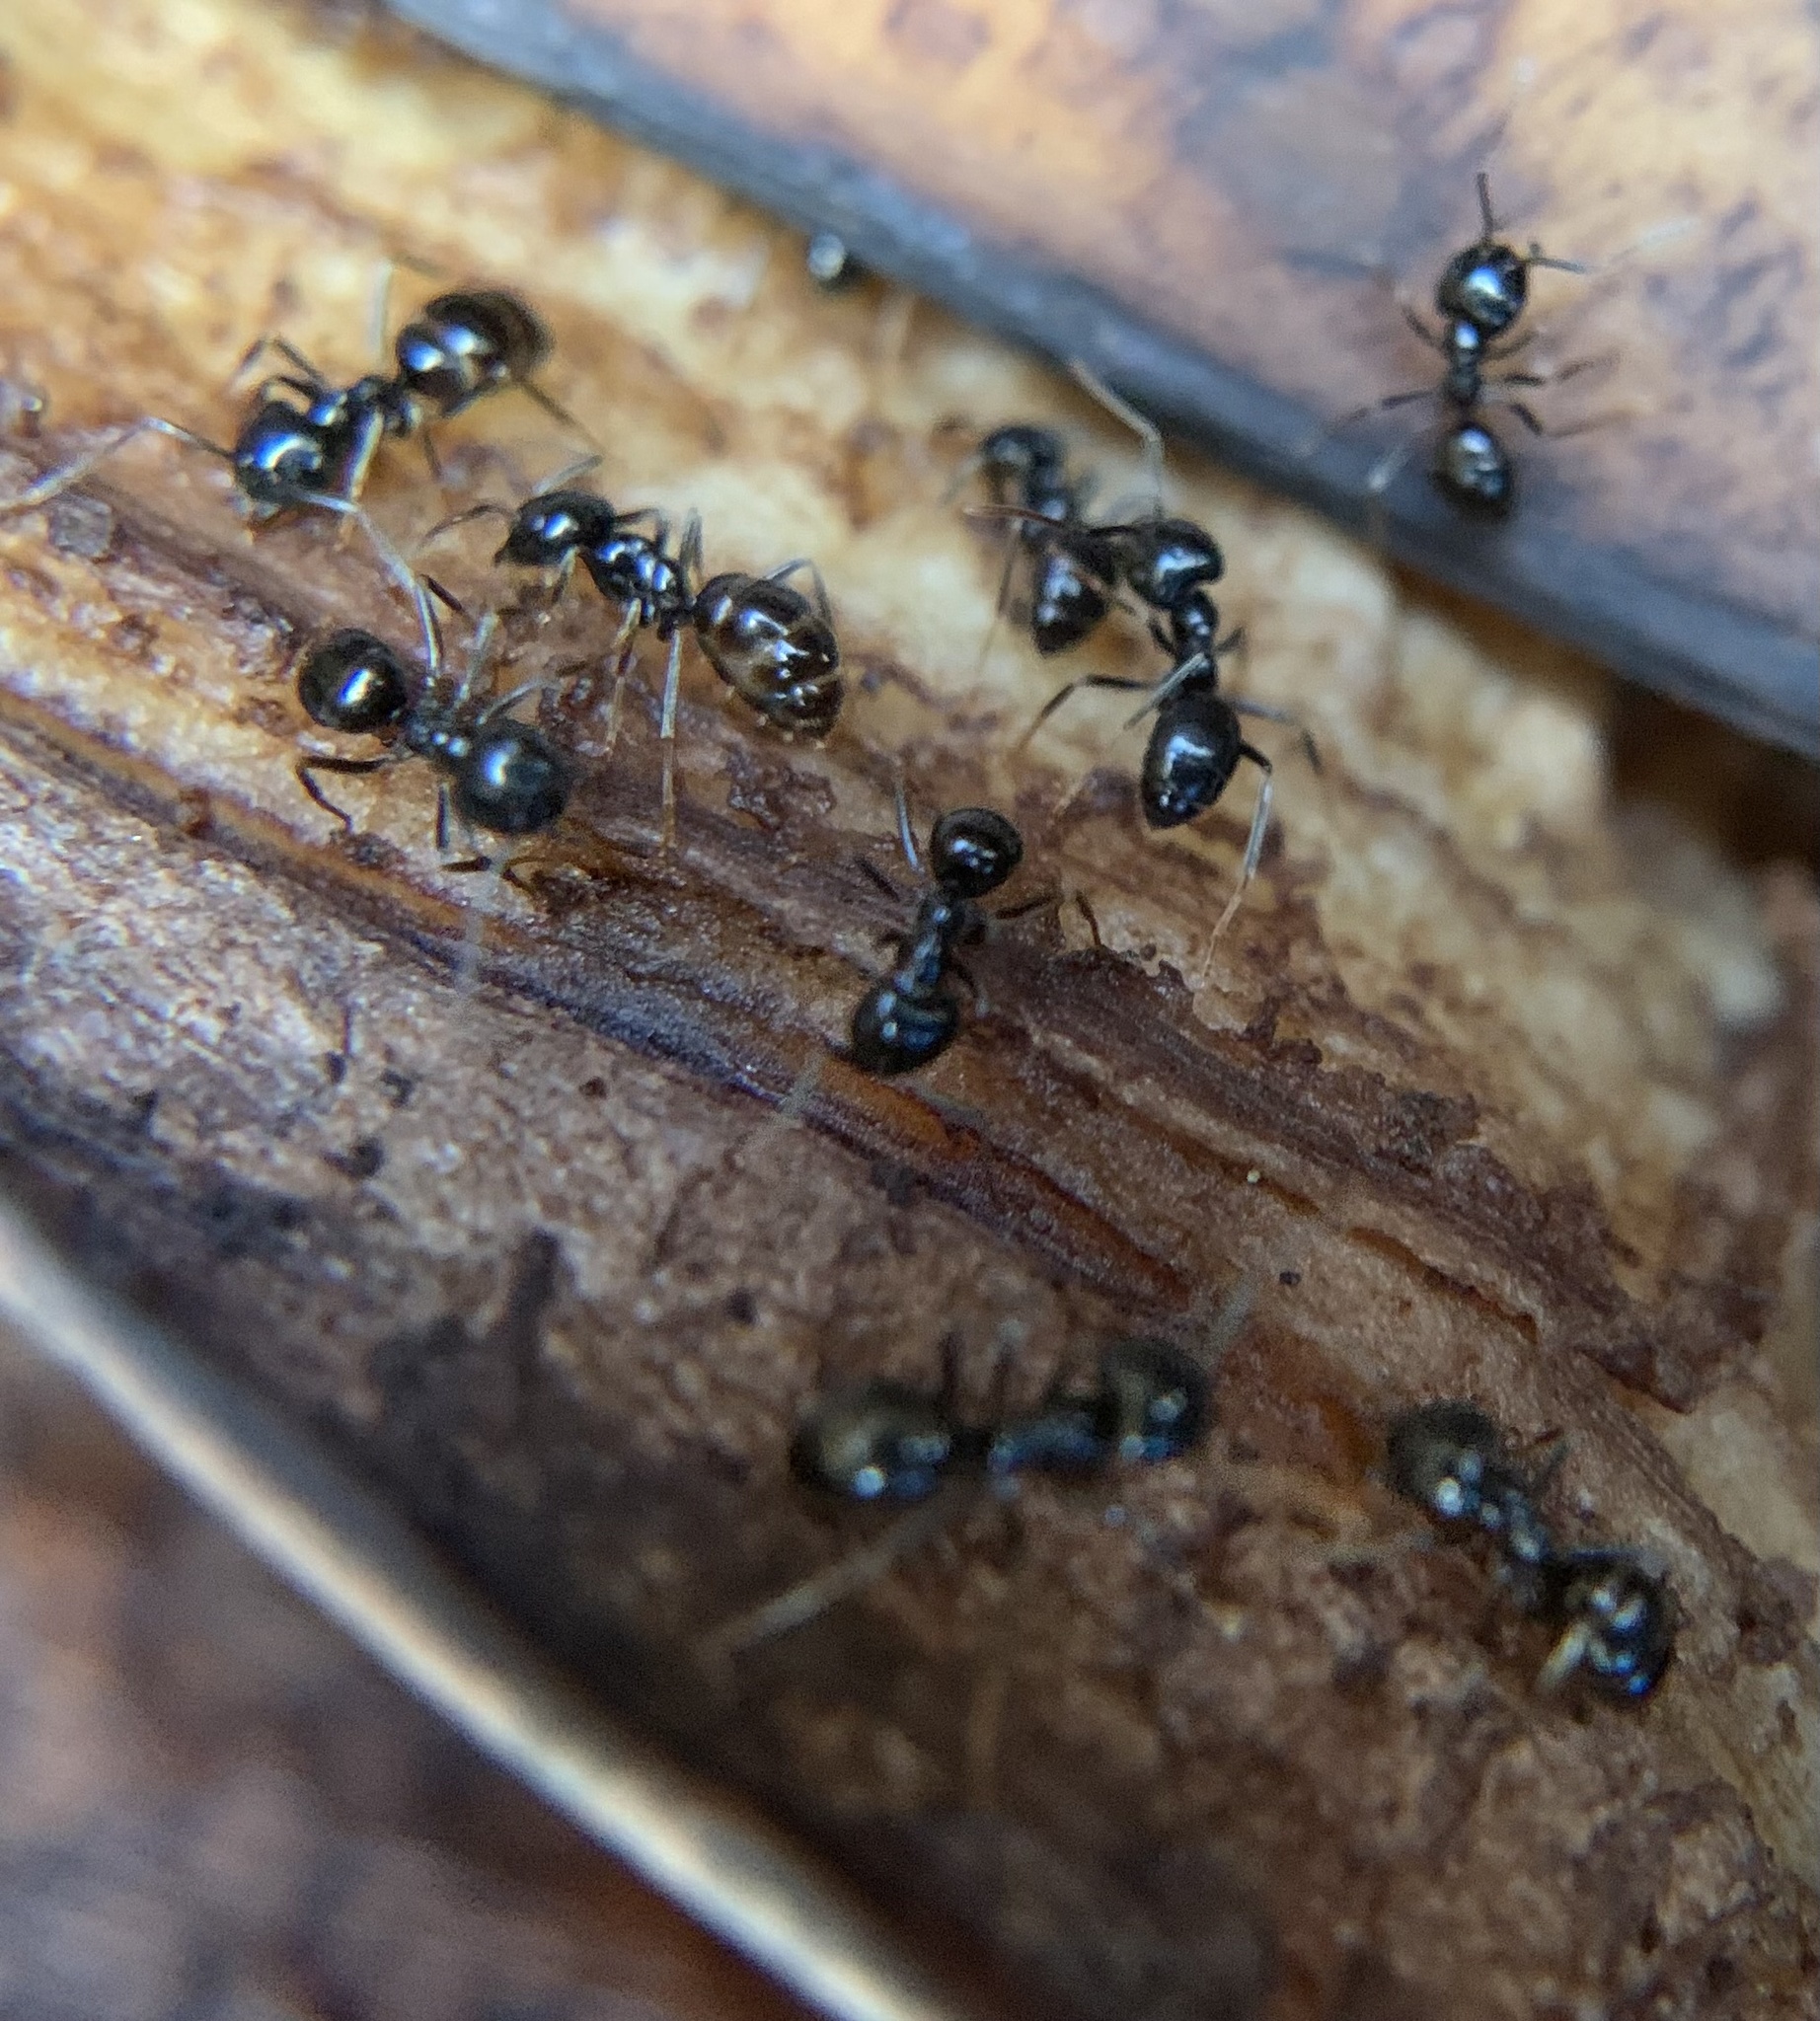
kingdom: Animalia
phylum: Arthropoda
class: Insecta
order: Hymenoptera
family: Formicidae
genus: Lasius
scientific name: Lasius fuliginosus
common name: Jet ant
